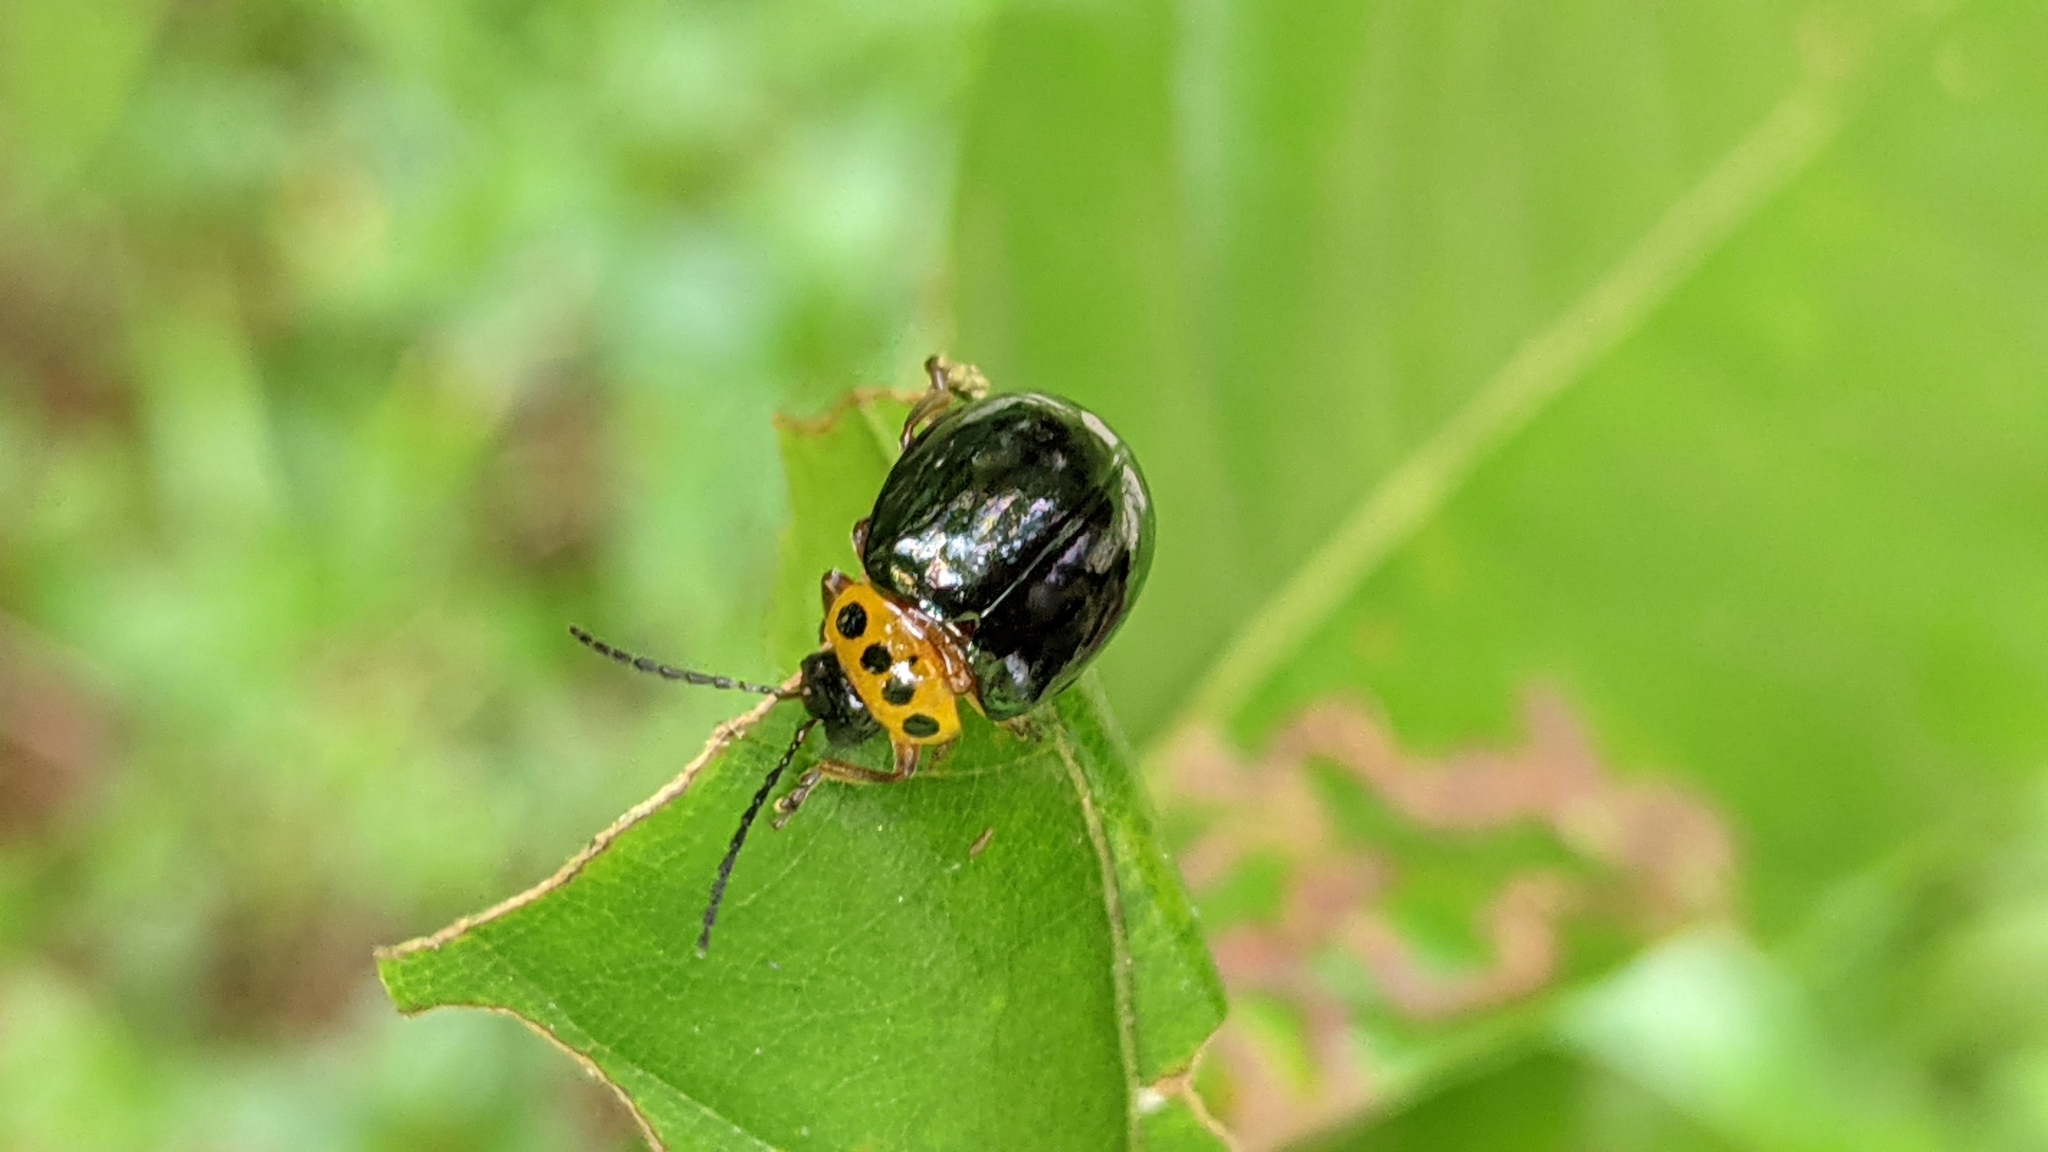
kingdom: Animalia
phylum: Arthropoda
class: Insecta
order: Coleoptera
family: Chrysomelidae
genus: Morphosphaera
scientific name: Morphosphaera chrysomeloides
